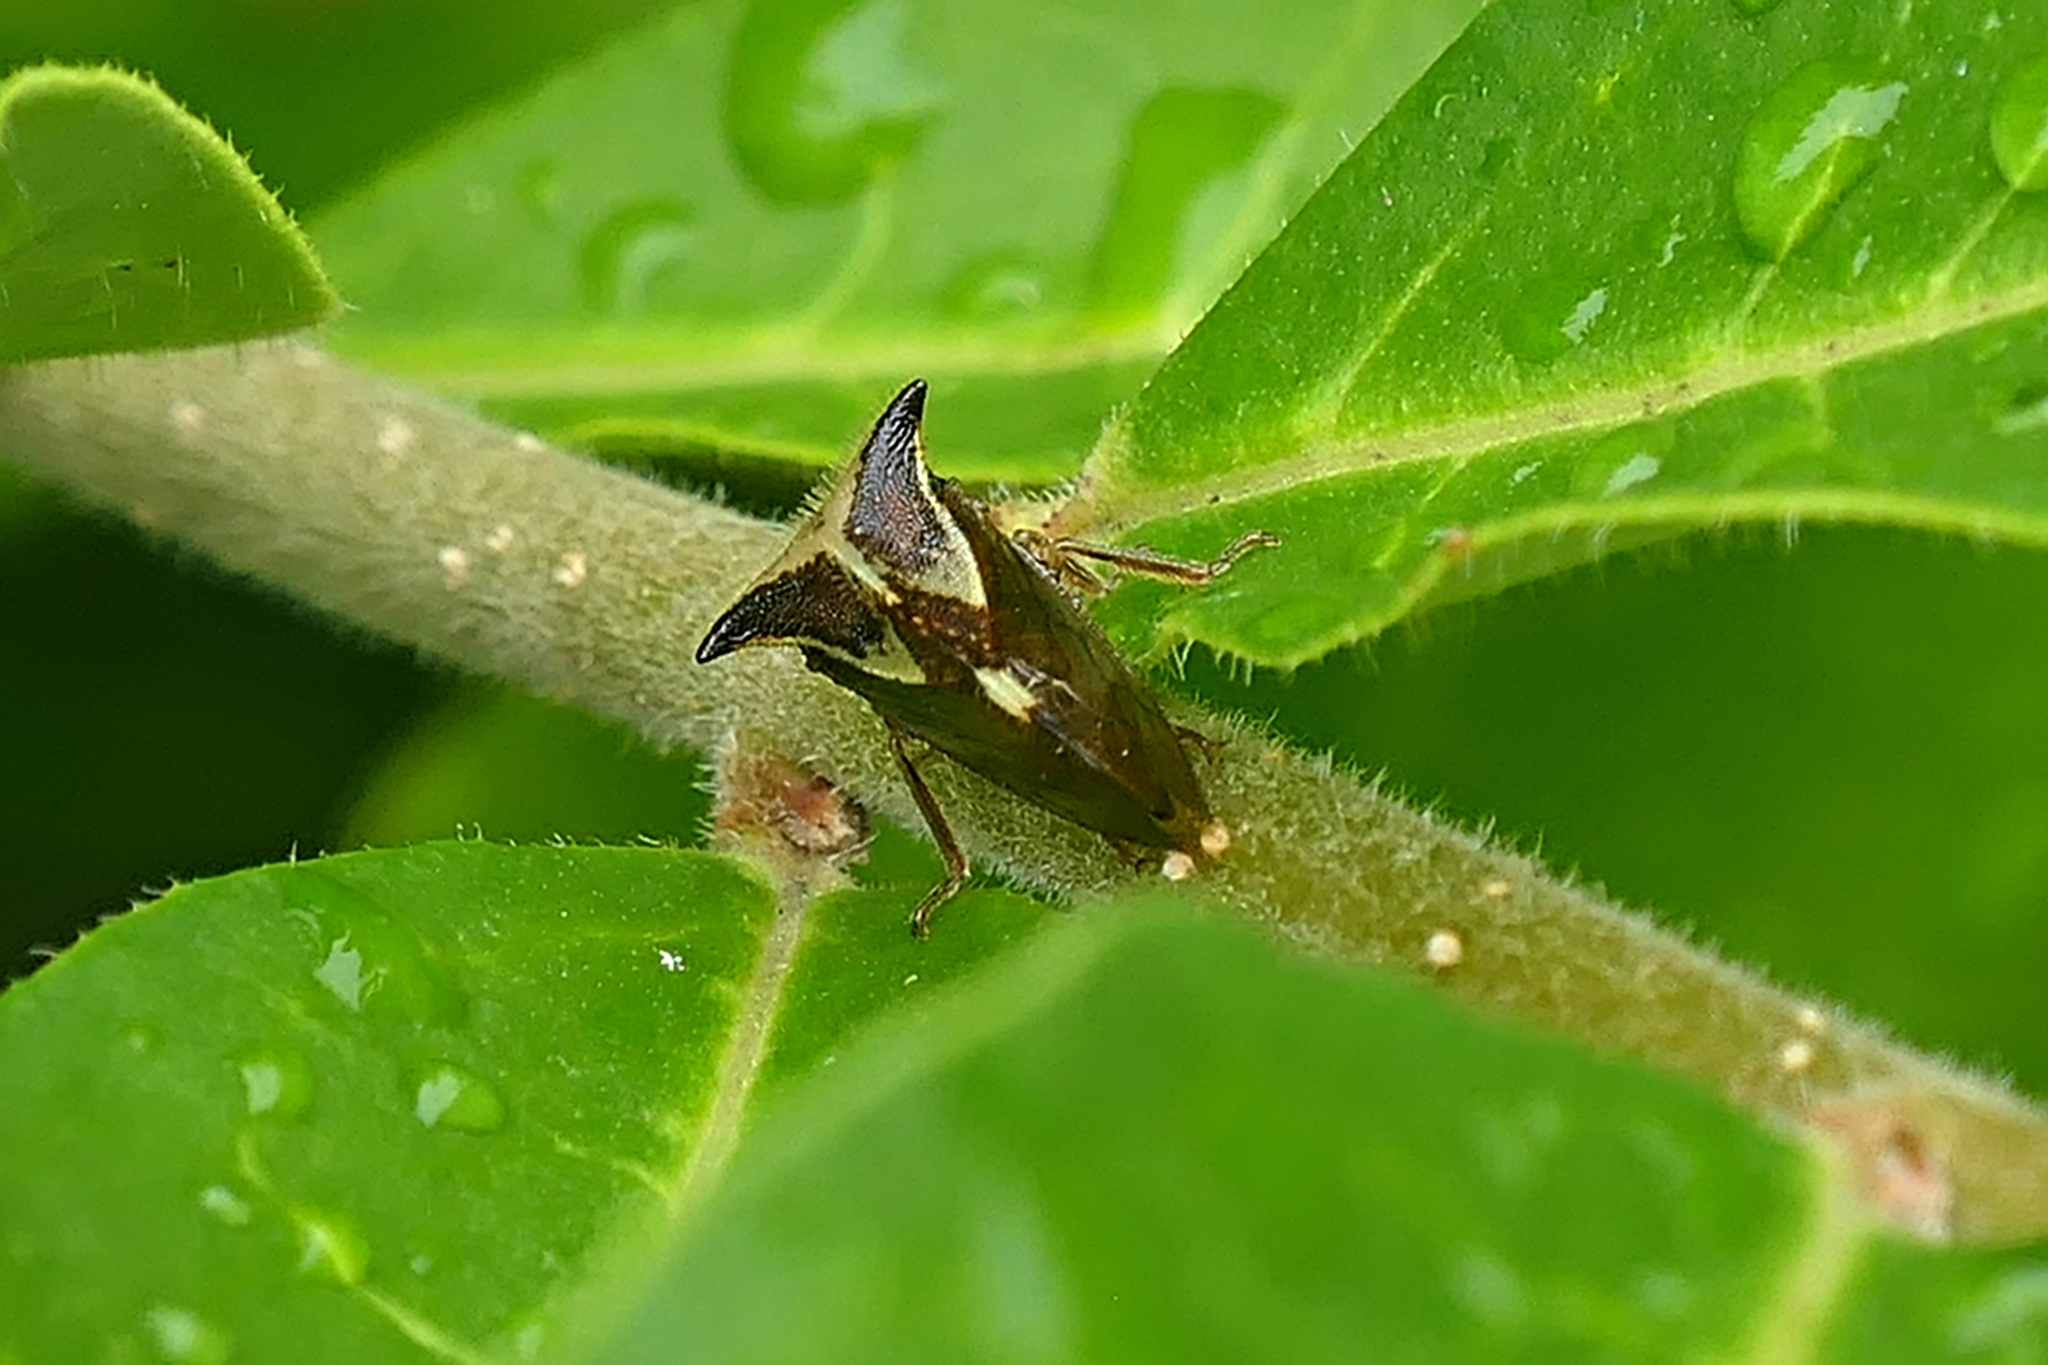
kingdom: Animalia
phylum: Arthropoda
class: Insecta
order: Hemiptera
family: Membracidae
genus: Stictocephala
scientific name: Stictocephala diceros
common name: Two-horned treehopper
